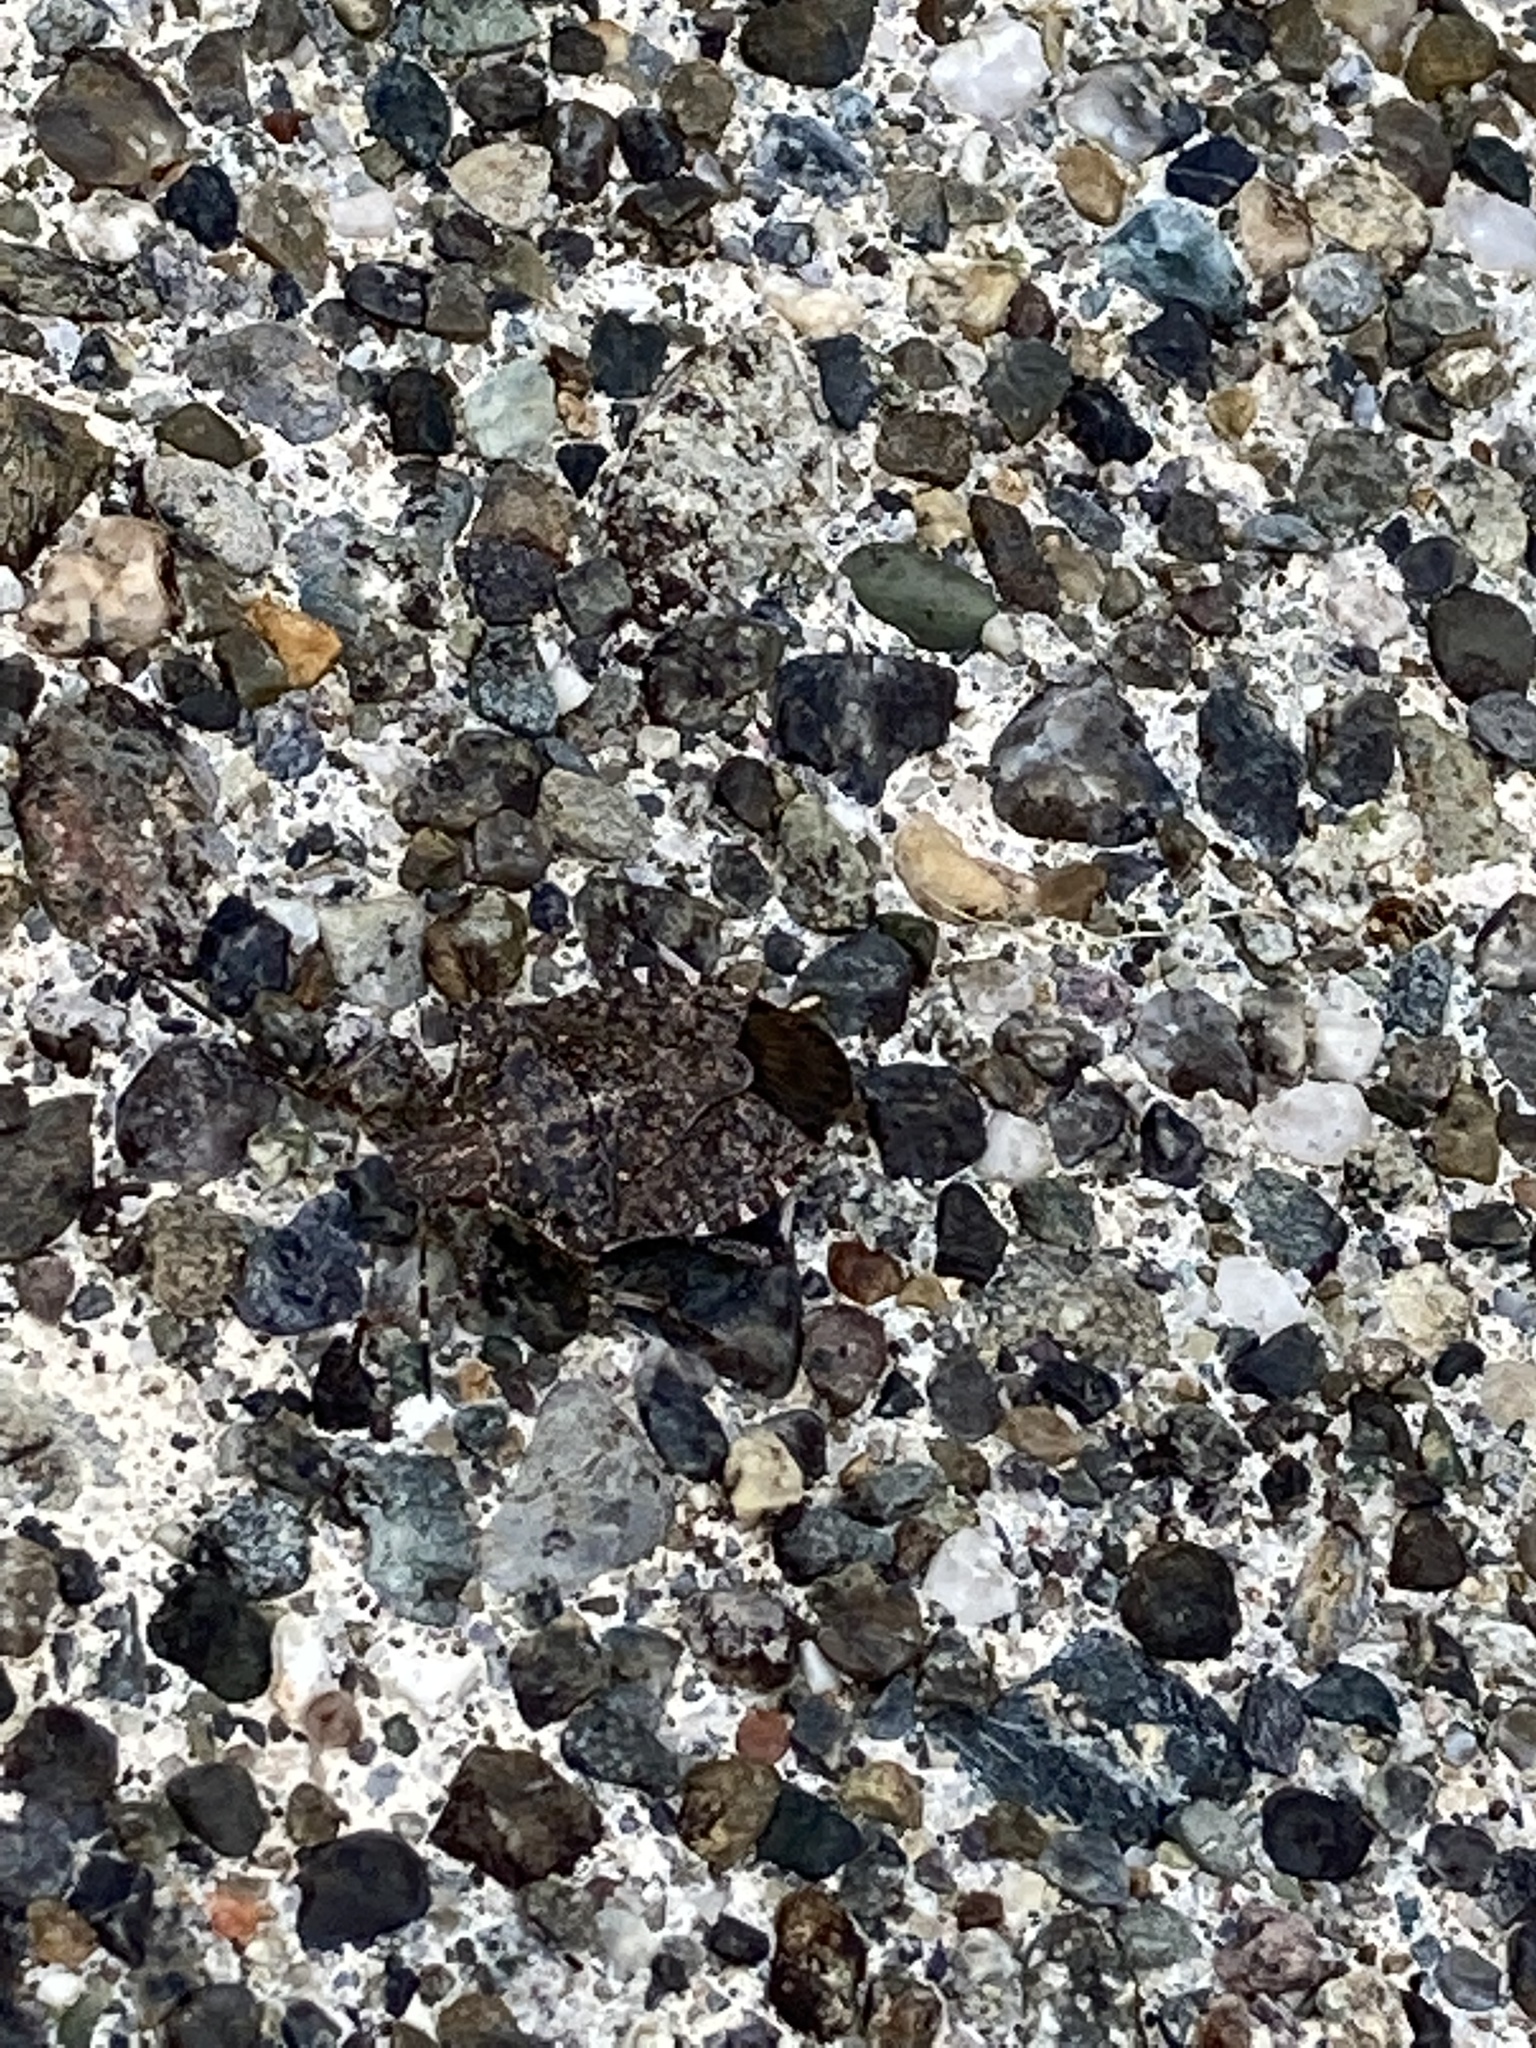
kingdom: Animalia
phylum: Arthropoda
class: Insecta
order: Hemiptera
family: Pentatomidae
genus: Halyomorpha
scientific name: Halyomorpha halys
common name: Brown marmorated stink bug
